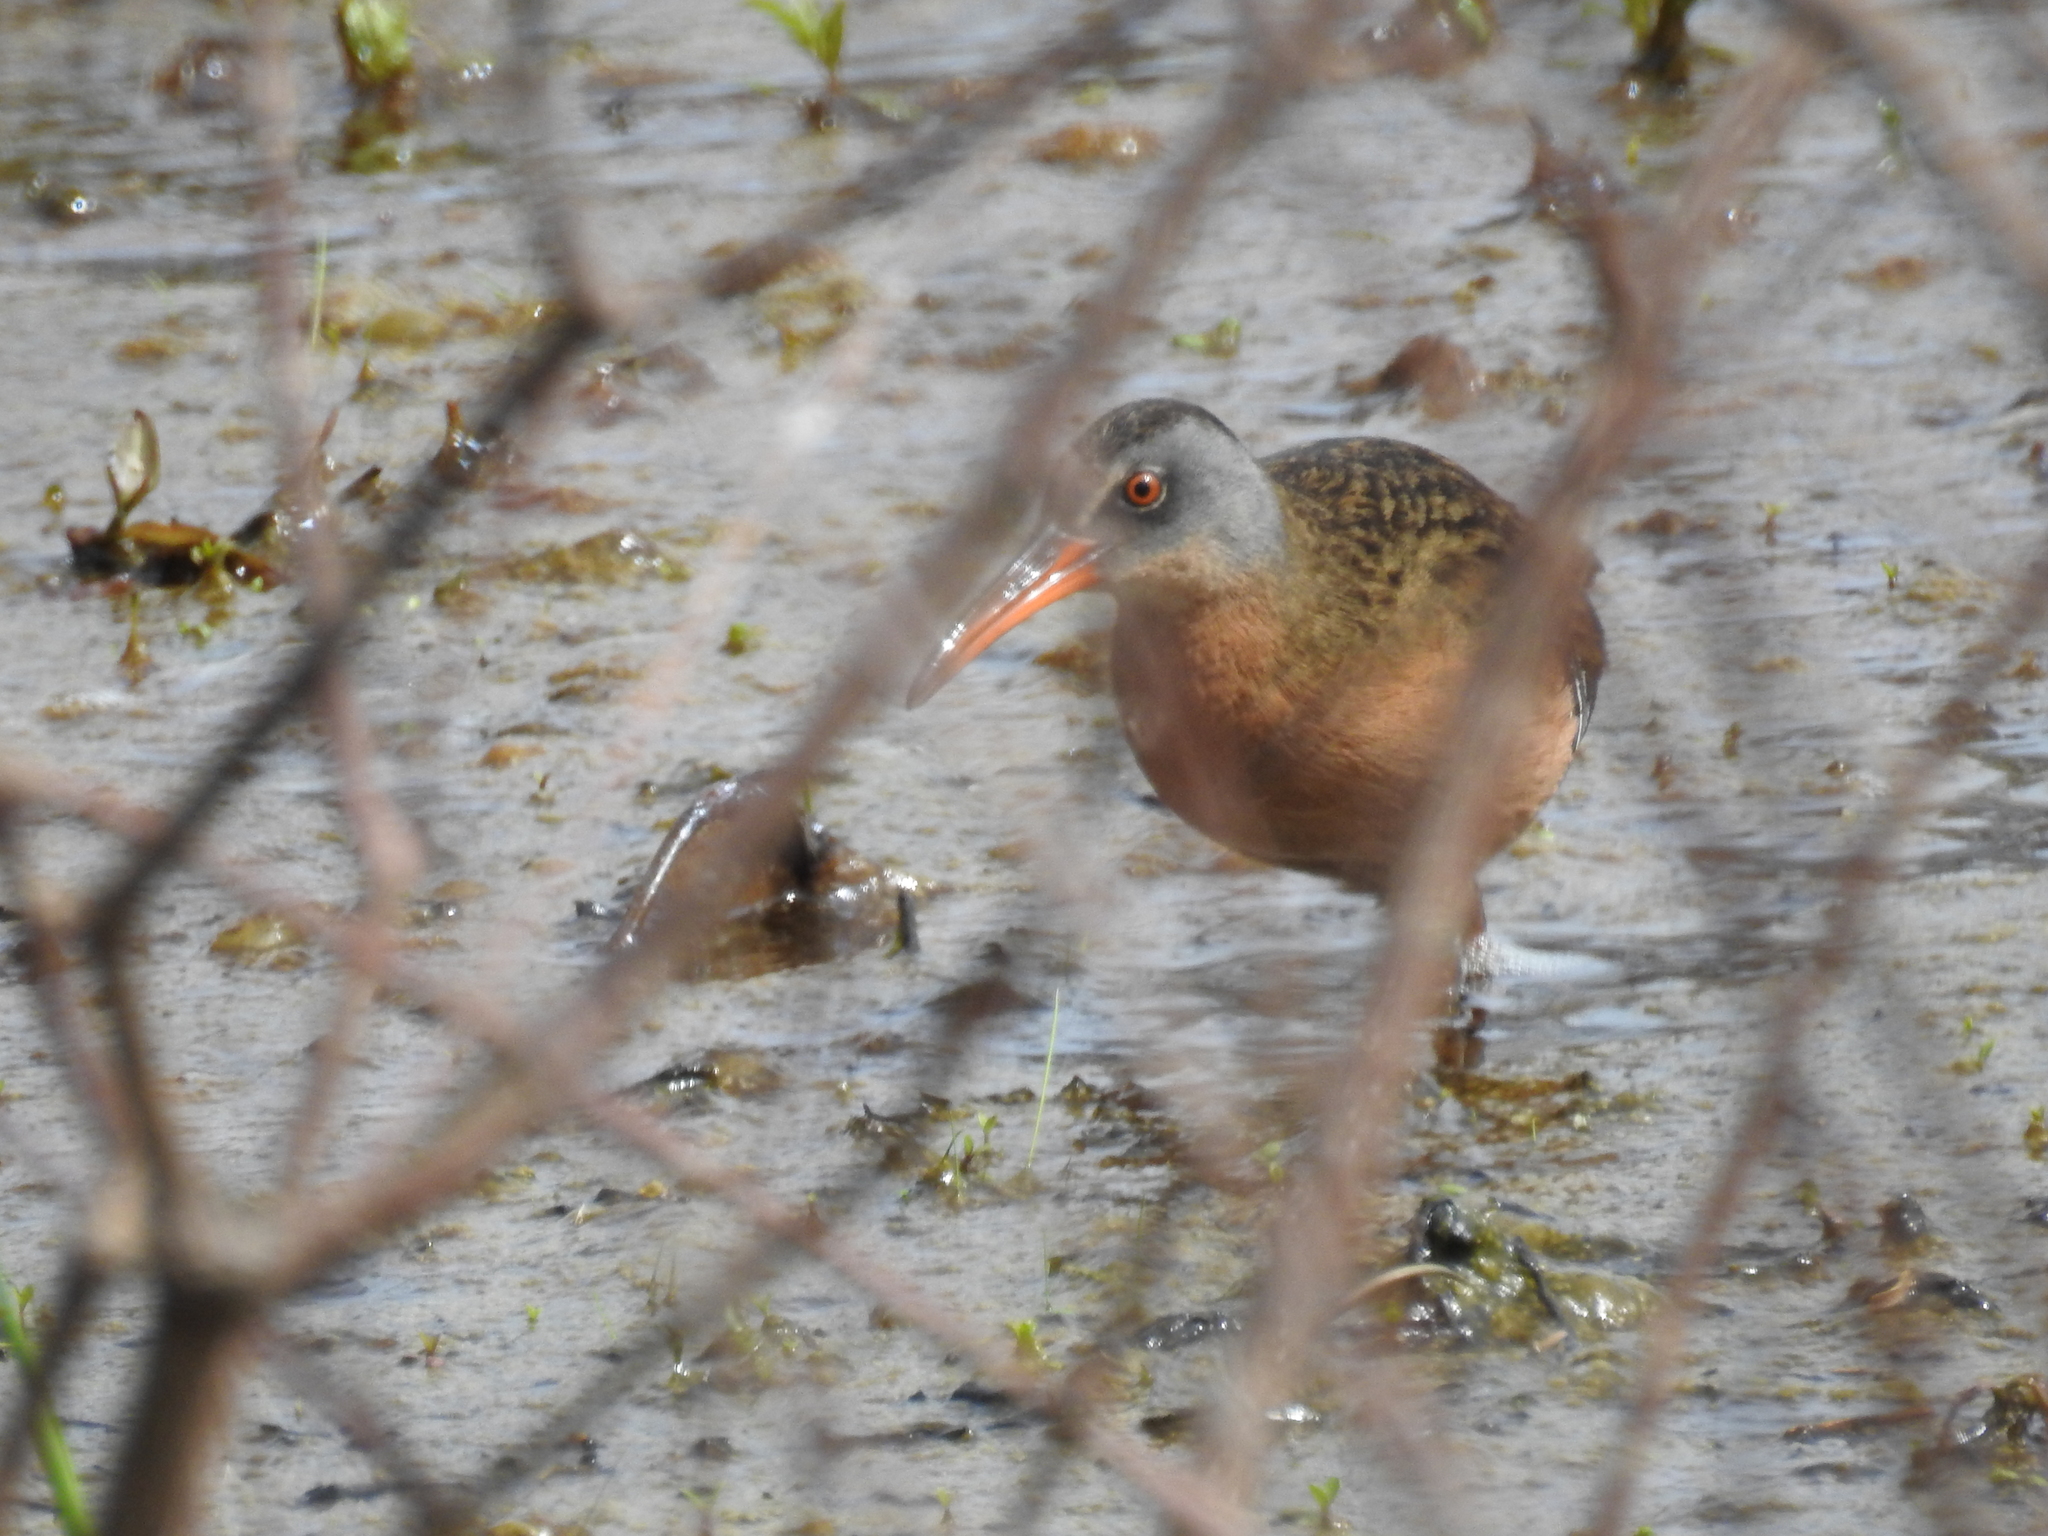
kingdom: Animalia
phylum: Chordata
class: Aves
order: Gruiformes
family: Rallidae
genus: Rallus
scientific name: Rallus limicola
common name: Virginia rail
